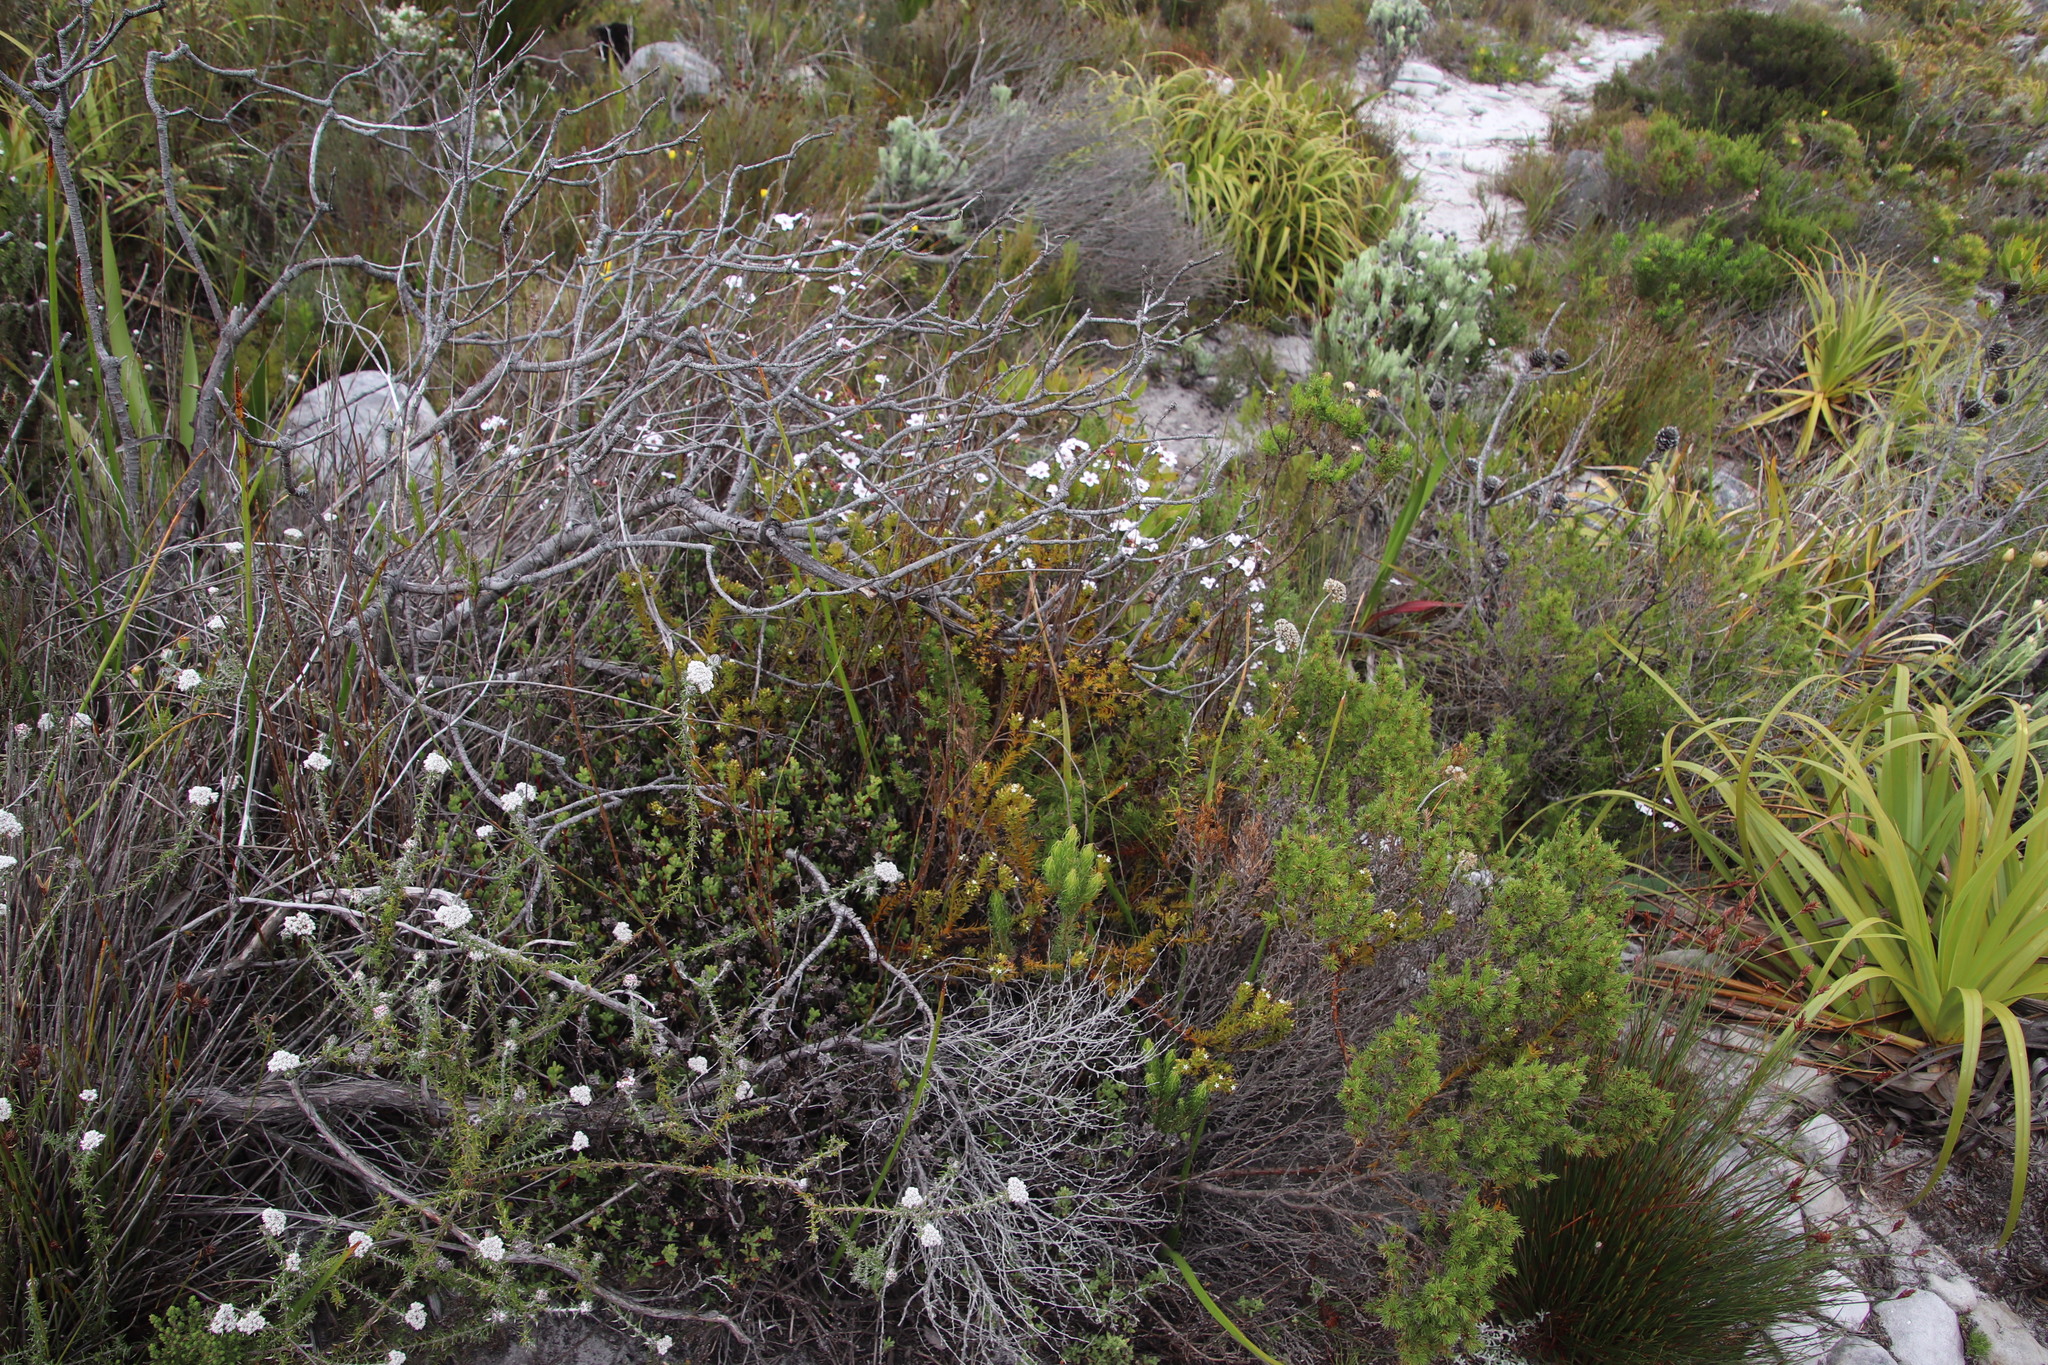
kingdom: Plantae
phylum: Tracheophyta
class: Magnoliopsida
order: Santalales
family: Thesiaceae
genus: Thesium
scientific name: Thesium viridifolium
